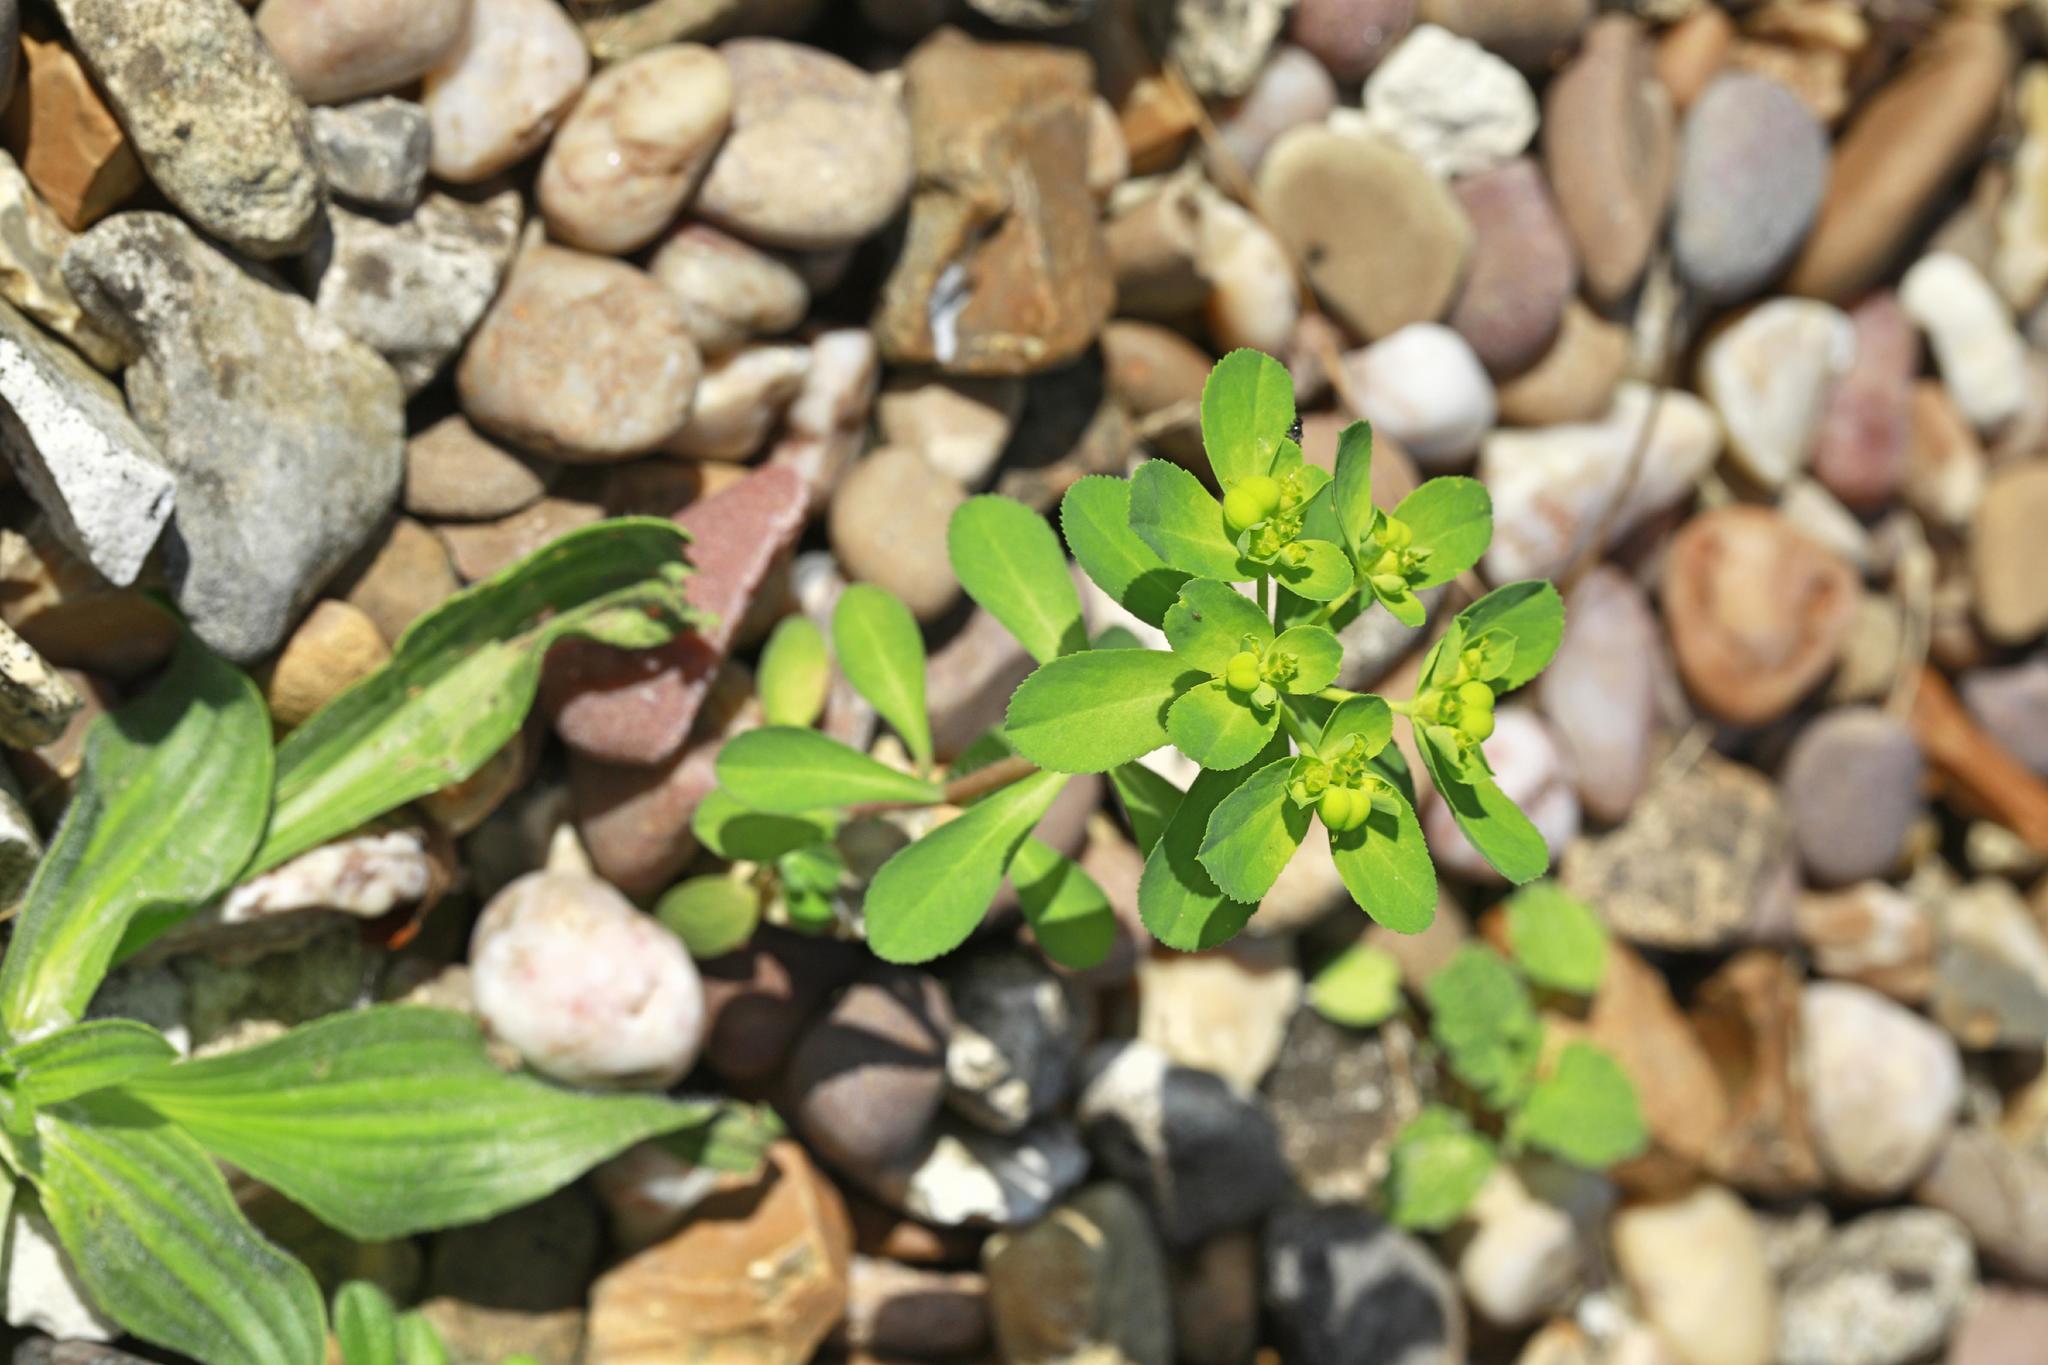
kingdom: Plantae
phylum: Tracheophyta
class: Magnoliopsida
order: Malpighiales
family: Euphorbiaceae
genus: Euphorbia
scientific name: Euphorbia helioscopia
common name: Sun spurge
